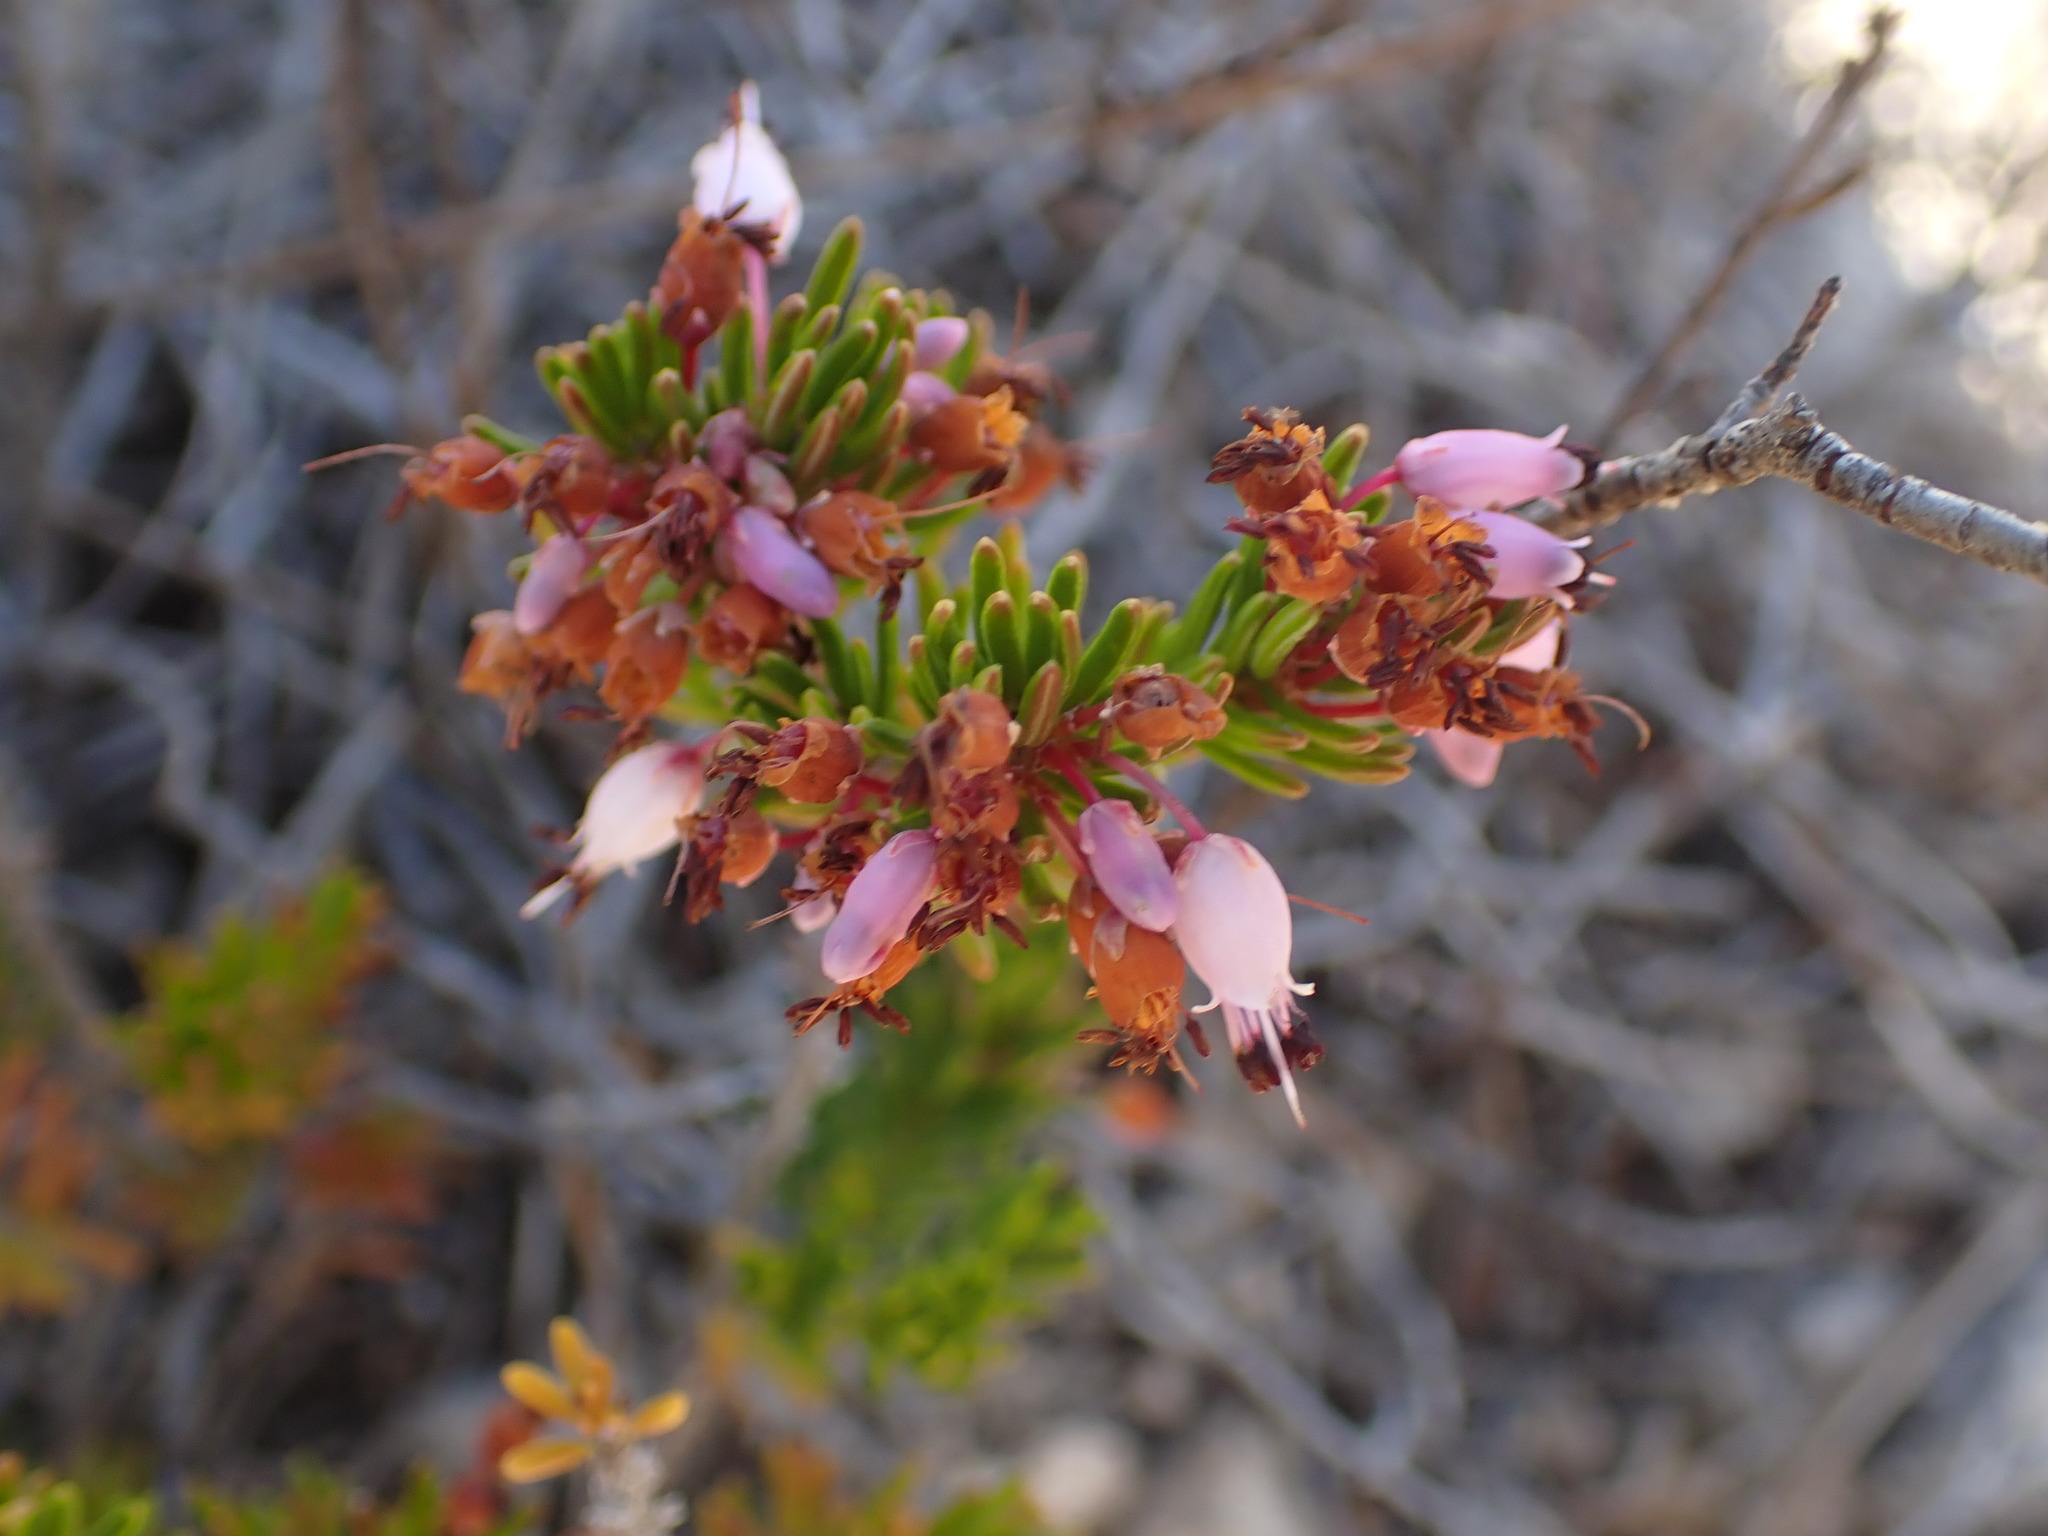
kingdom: Plantae
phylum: Tracheophyta
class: Magnoliopsida
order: Ericales
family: Ericaceae
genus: Erica
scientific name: Erica multiflora
